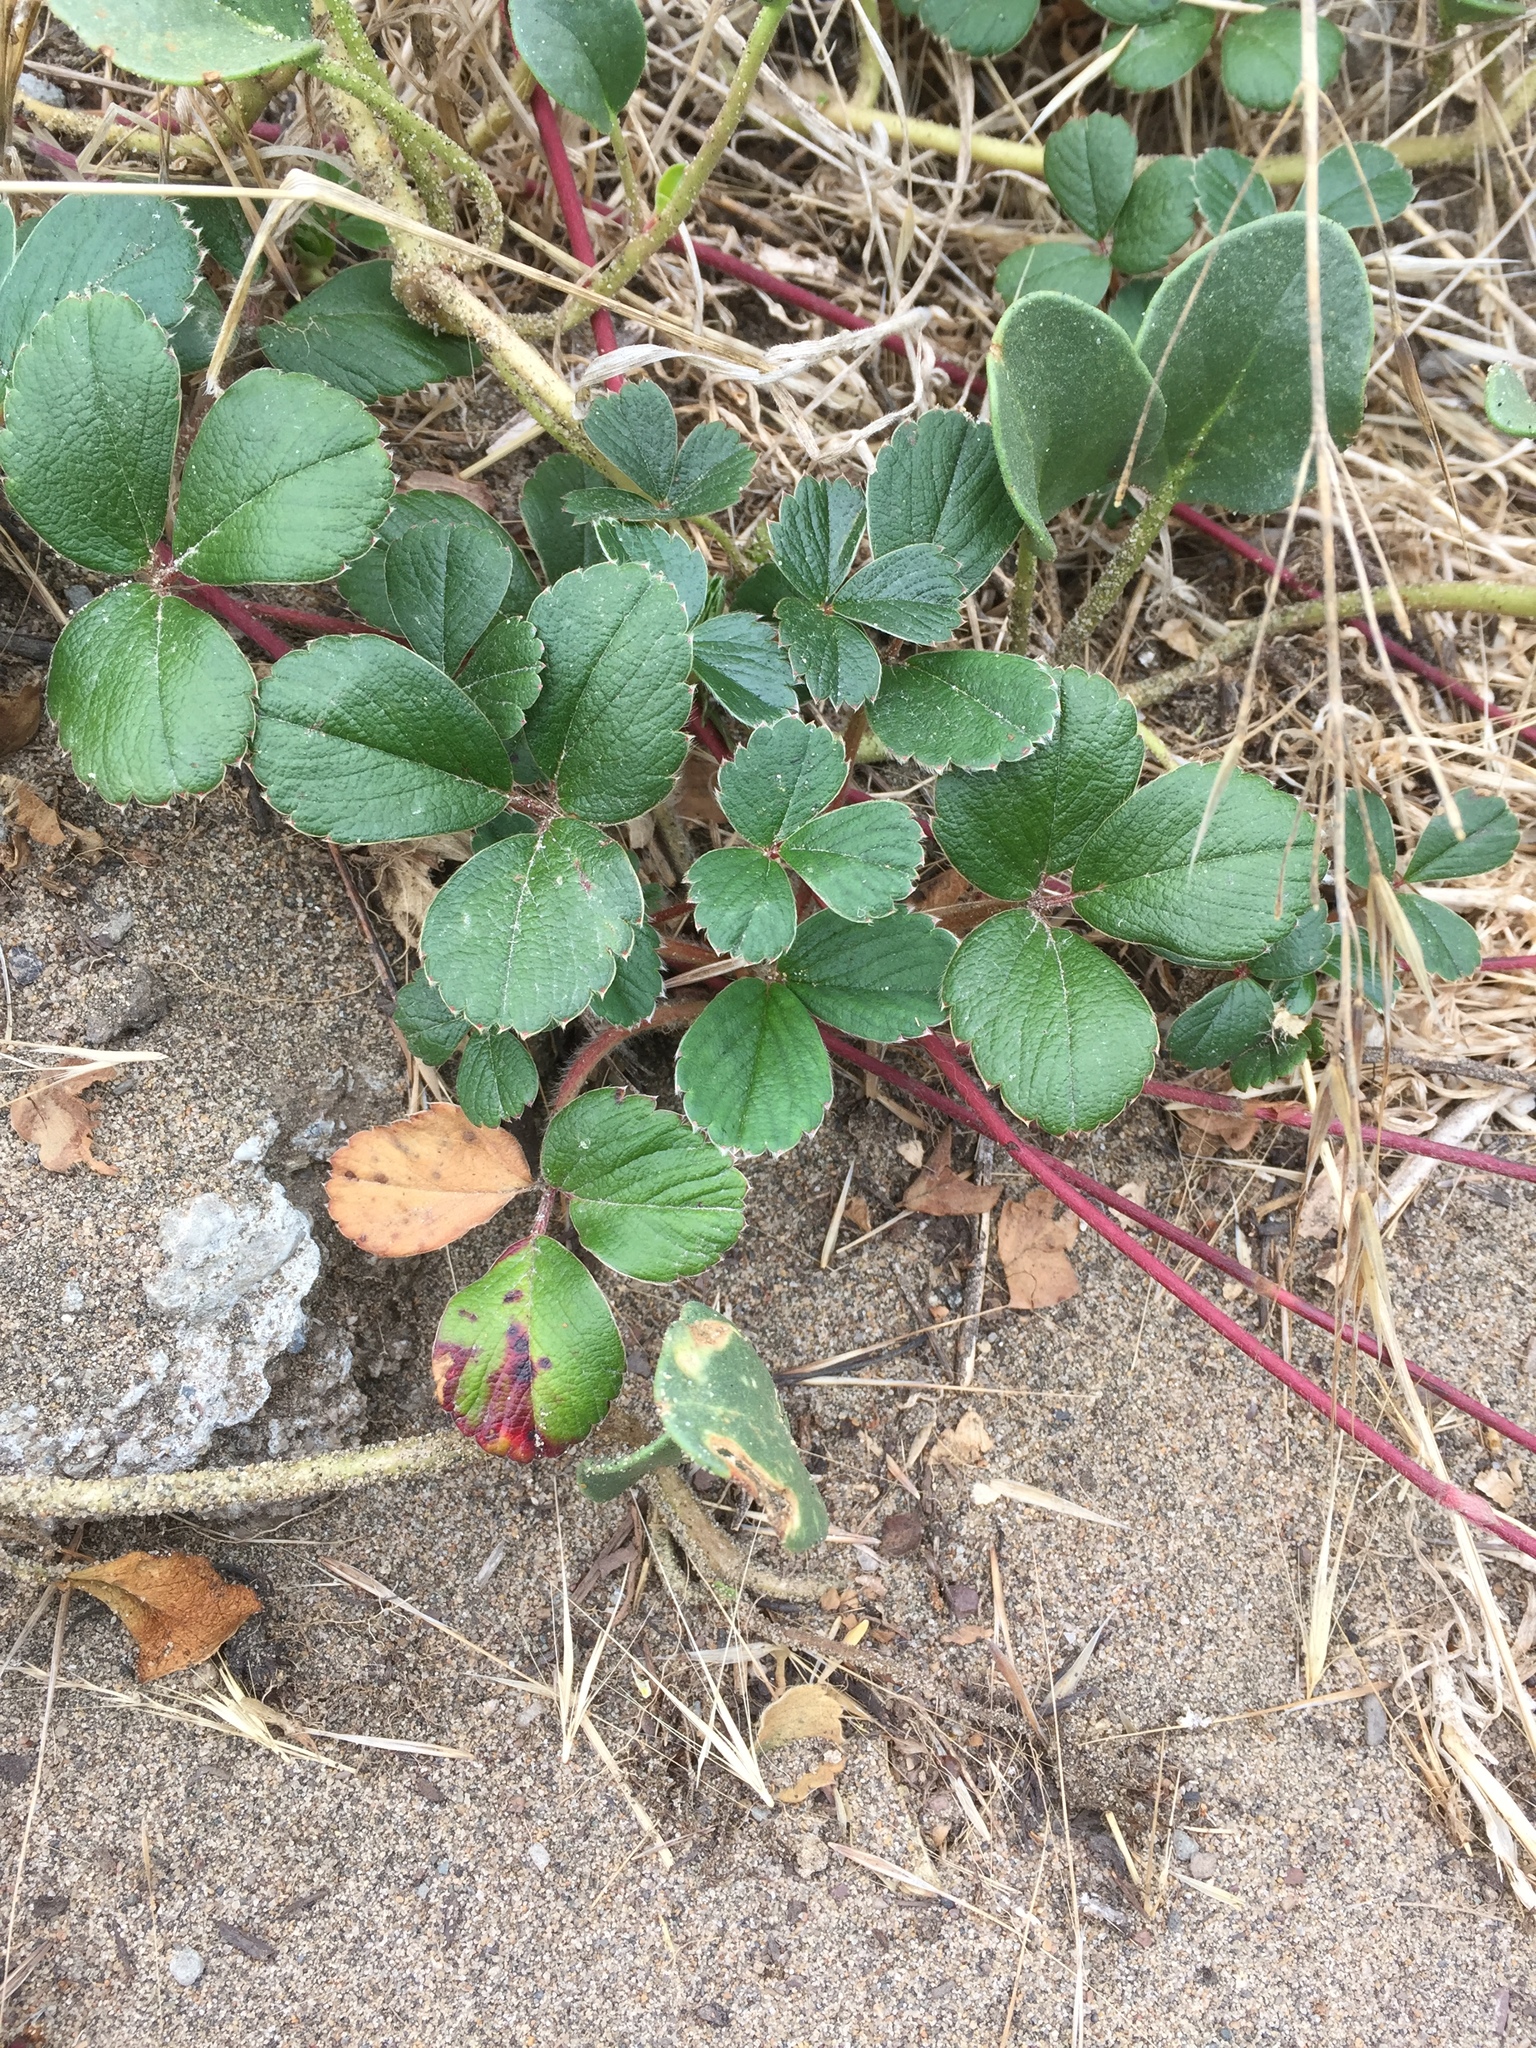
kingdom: Plantae
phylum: Tracheophyta
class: Magnoliopsida
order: Rosales
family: Rosaceae
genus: Fragaria
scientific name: Fragaria chiloensis
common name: Beach strawberry
